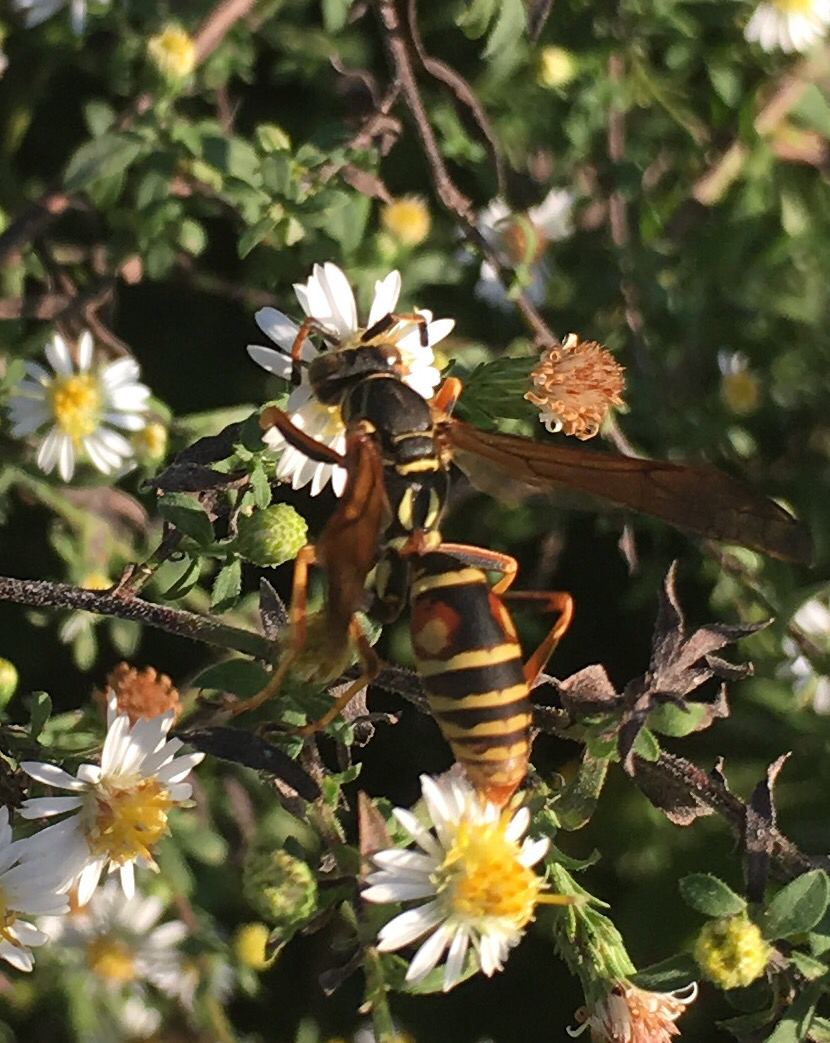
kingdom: Animalia
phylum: Arthropoda
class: Insecta
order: Hymenoptera
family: Eumenidae
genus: Polistes
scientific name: Polistes fuscatus
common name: Dark paper wasp
